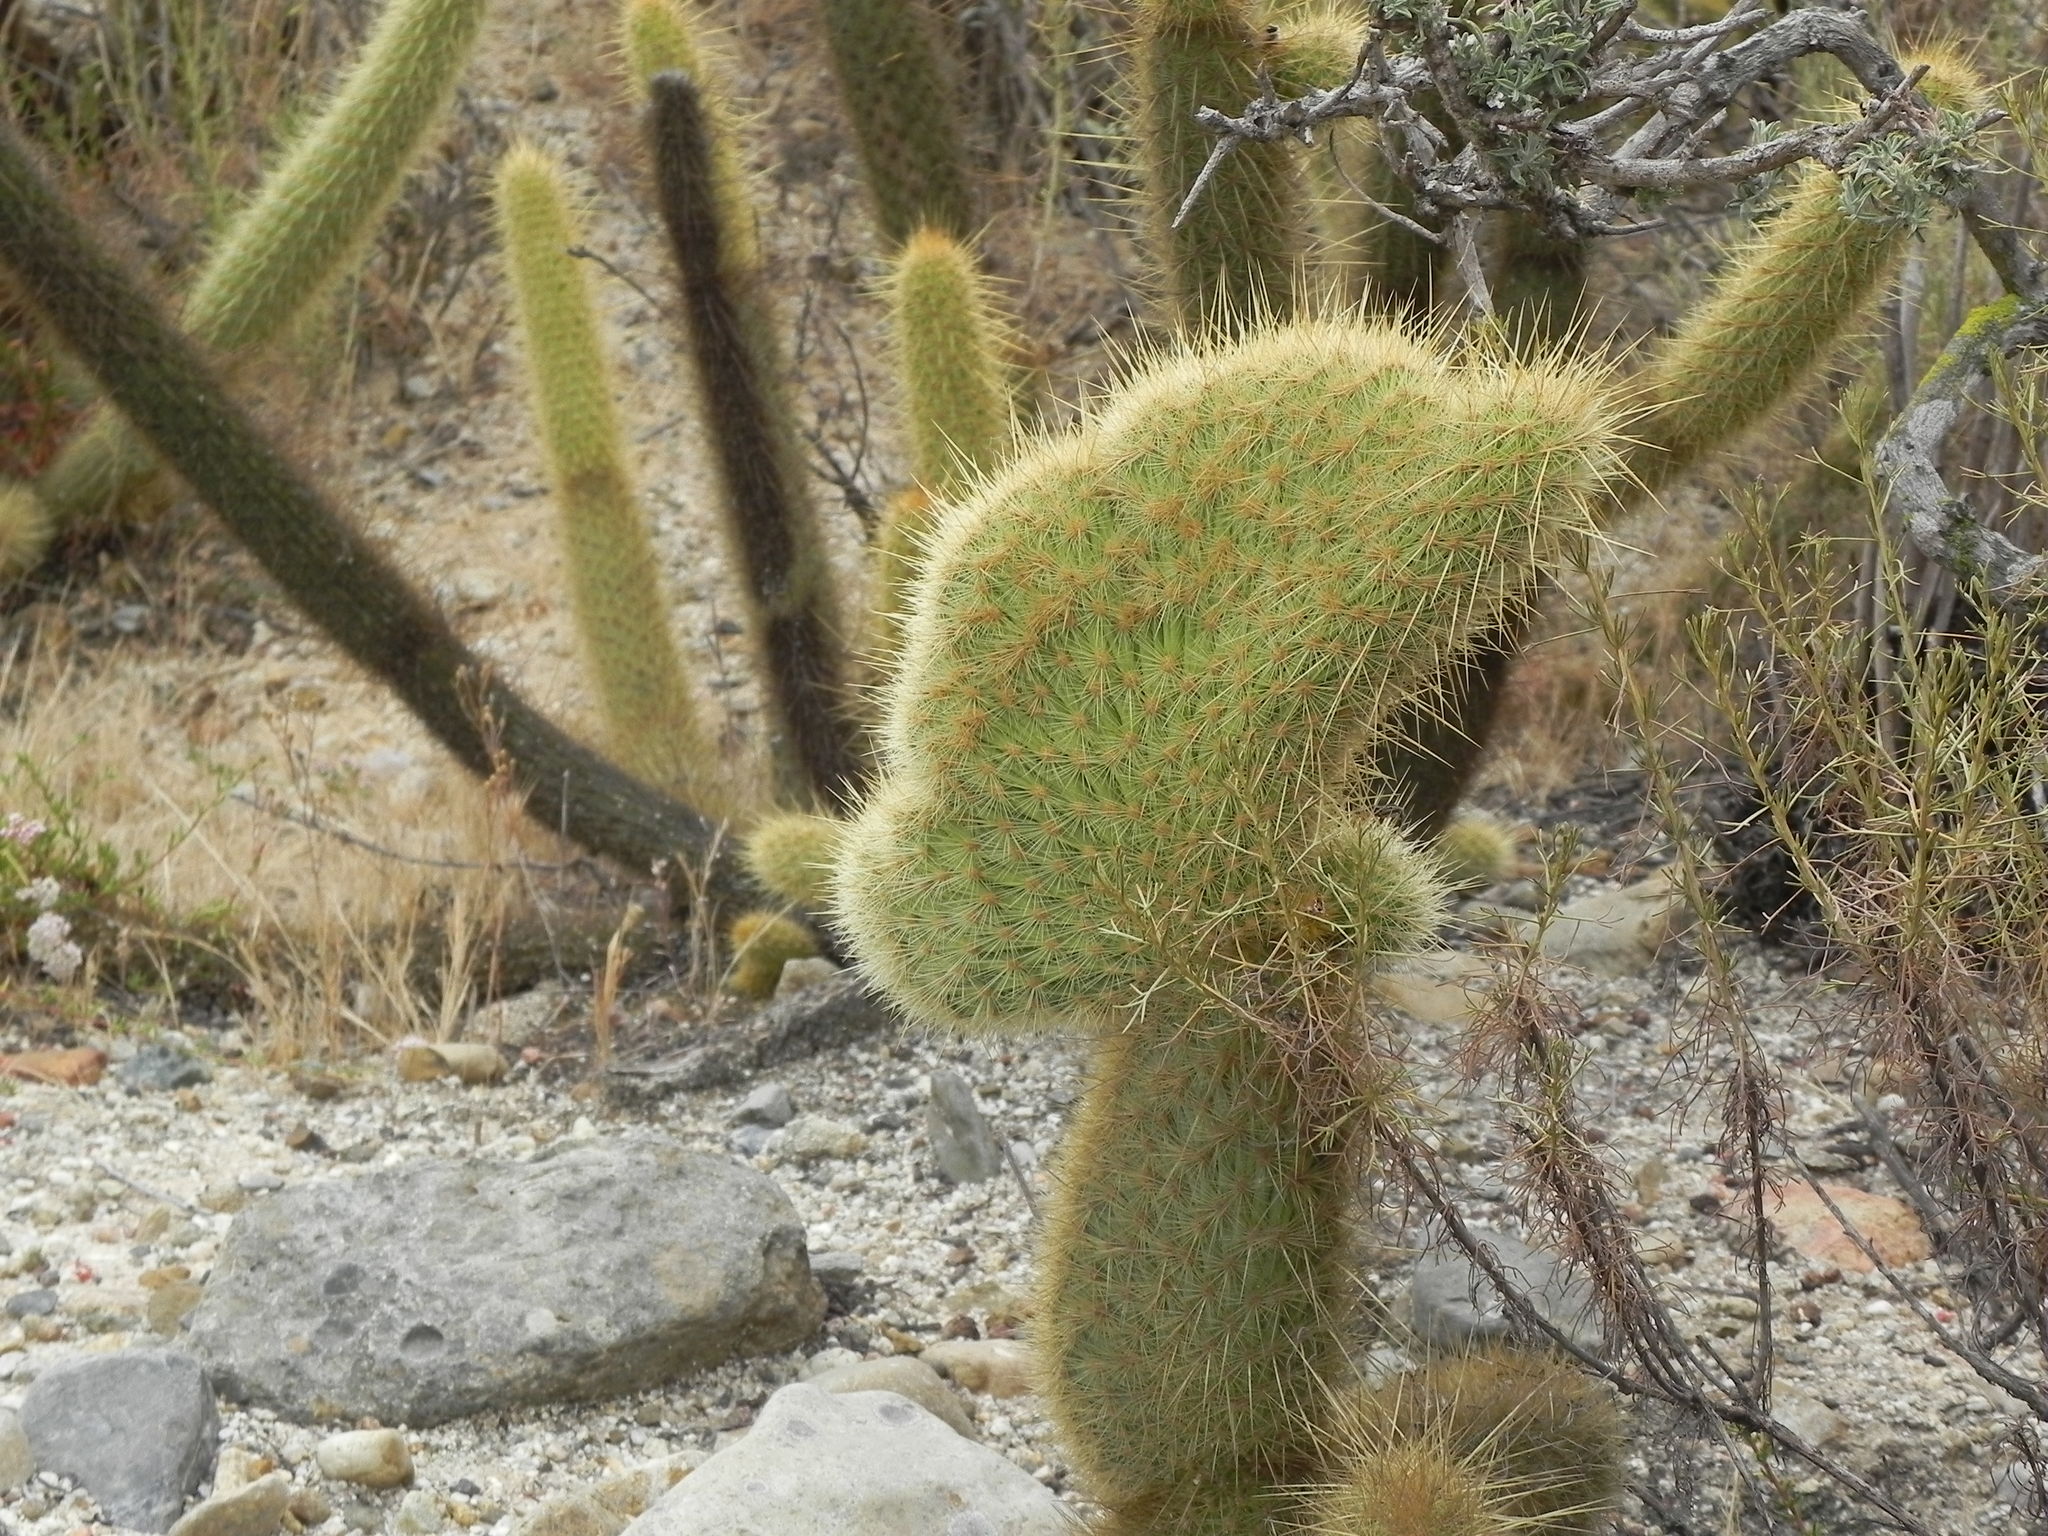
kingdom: Plantae
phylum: Tracheophyta
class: Magnoliopsida
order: Caryophyllales
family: Cactaceae
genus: Bergerocactus
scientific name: Bergerocactus emoryi
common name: Golden snakecactus
